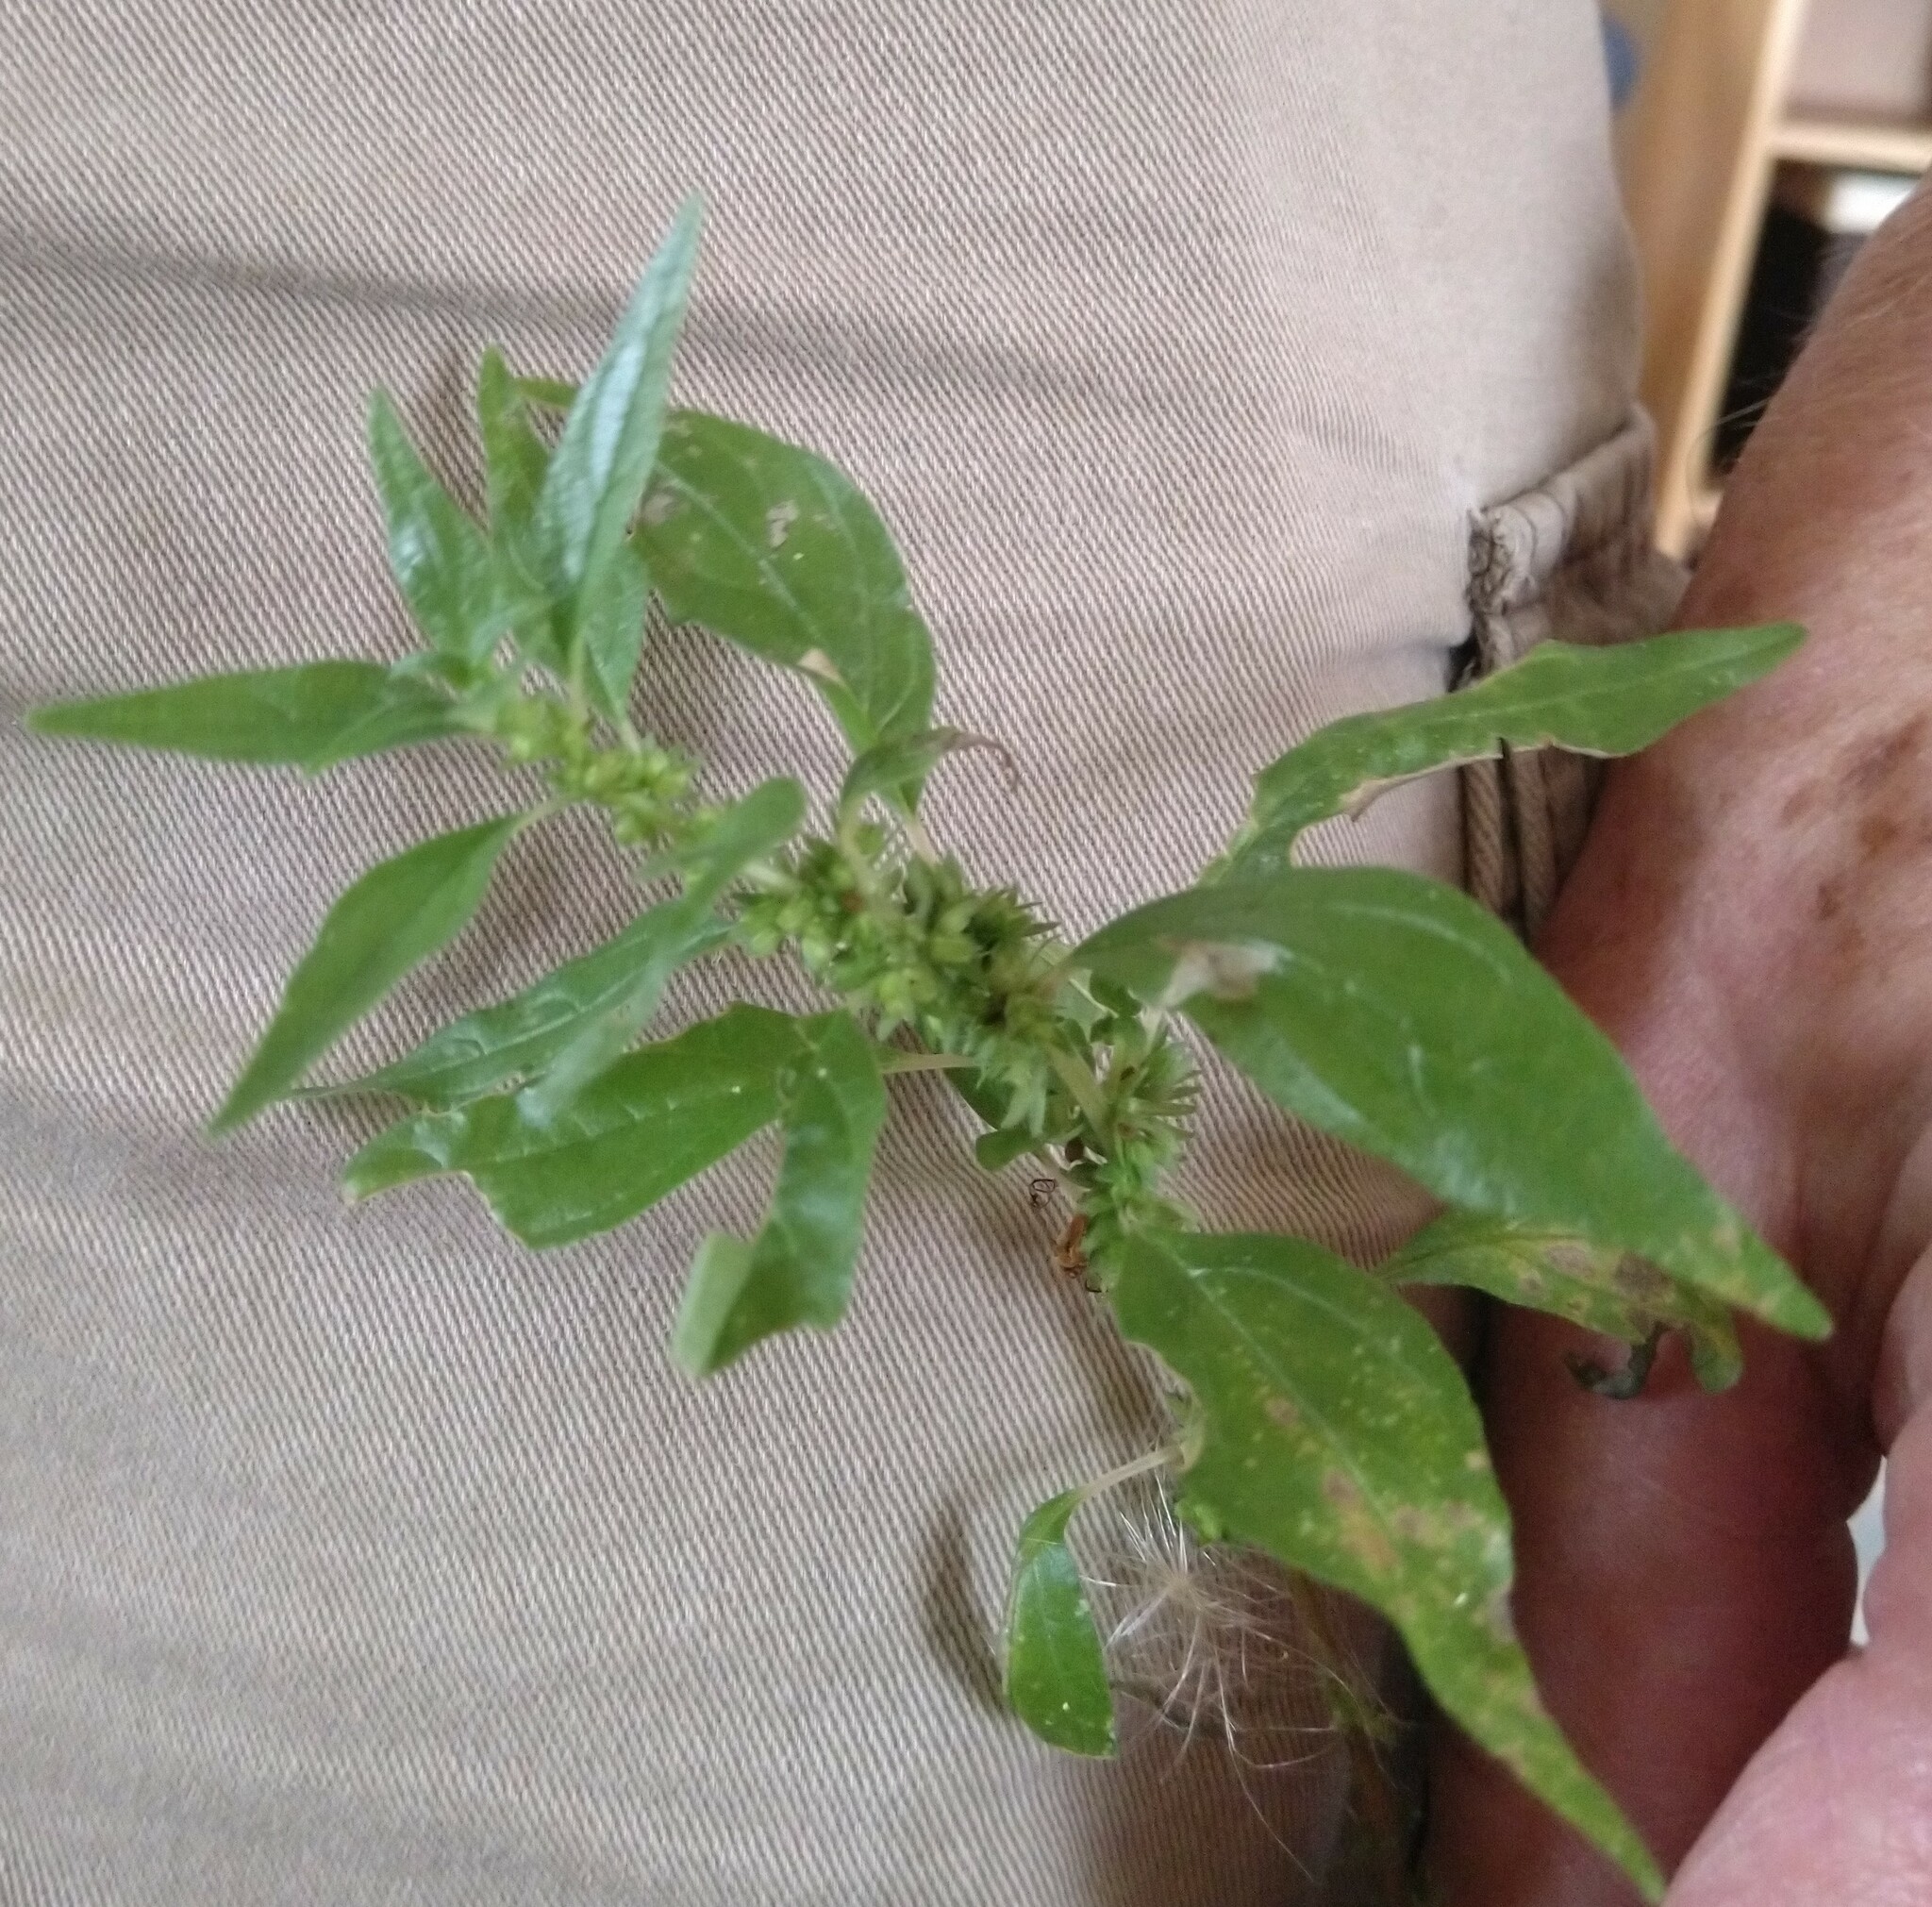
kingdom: Plantae
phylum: Tracheophyta
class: Magnoliopsida
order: Rosales
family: Urticaceae
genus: Parietaria
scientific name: Parietaria pensylvanica
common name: Pennsylvania pellitory
